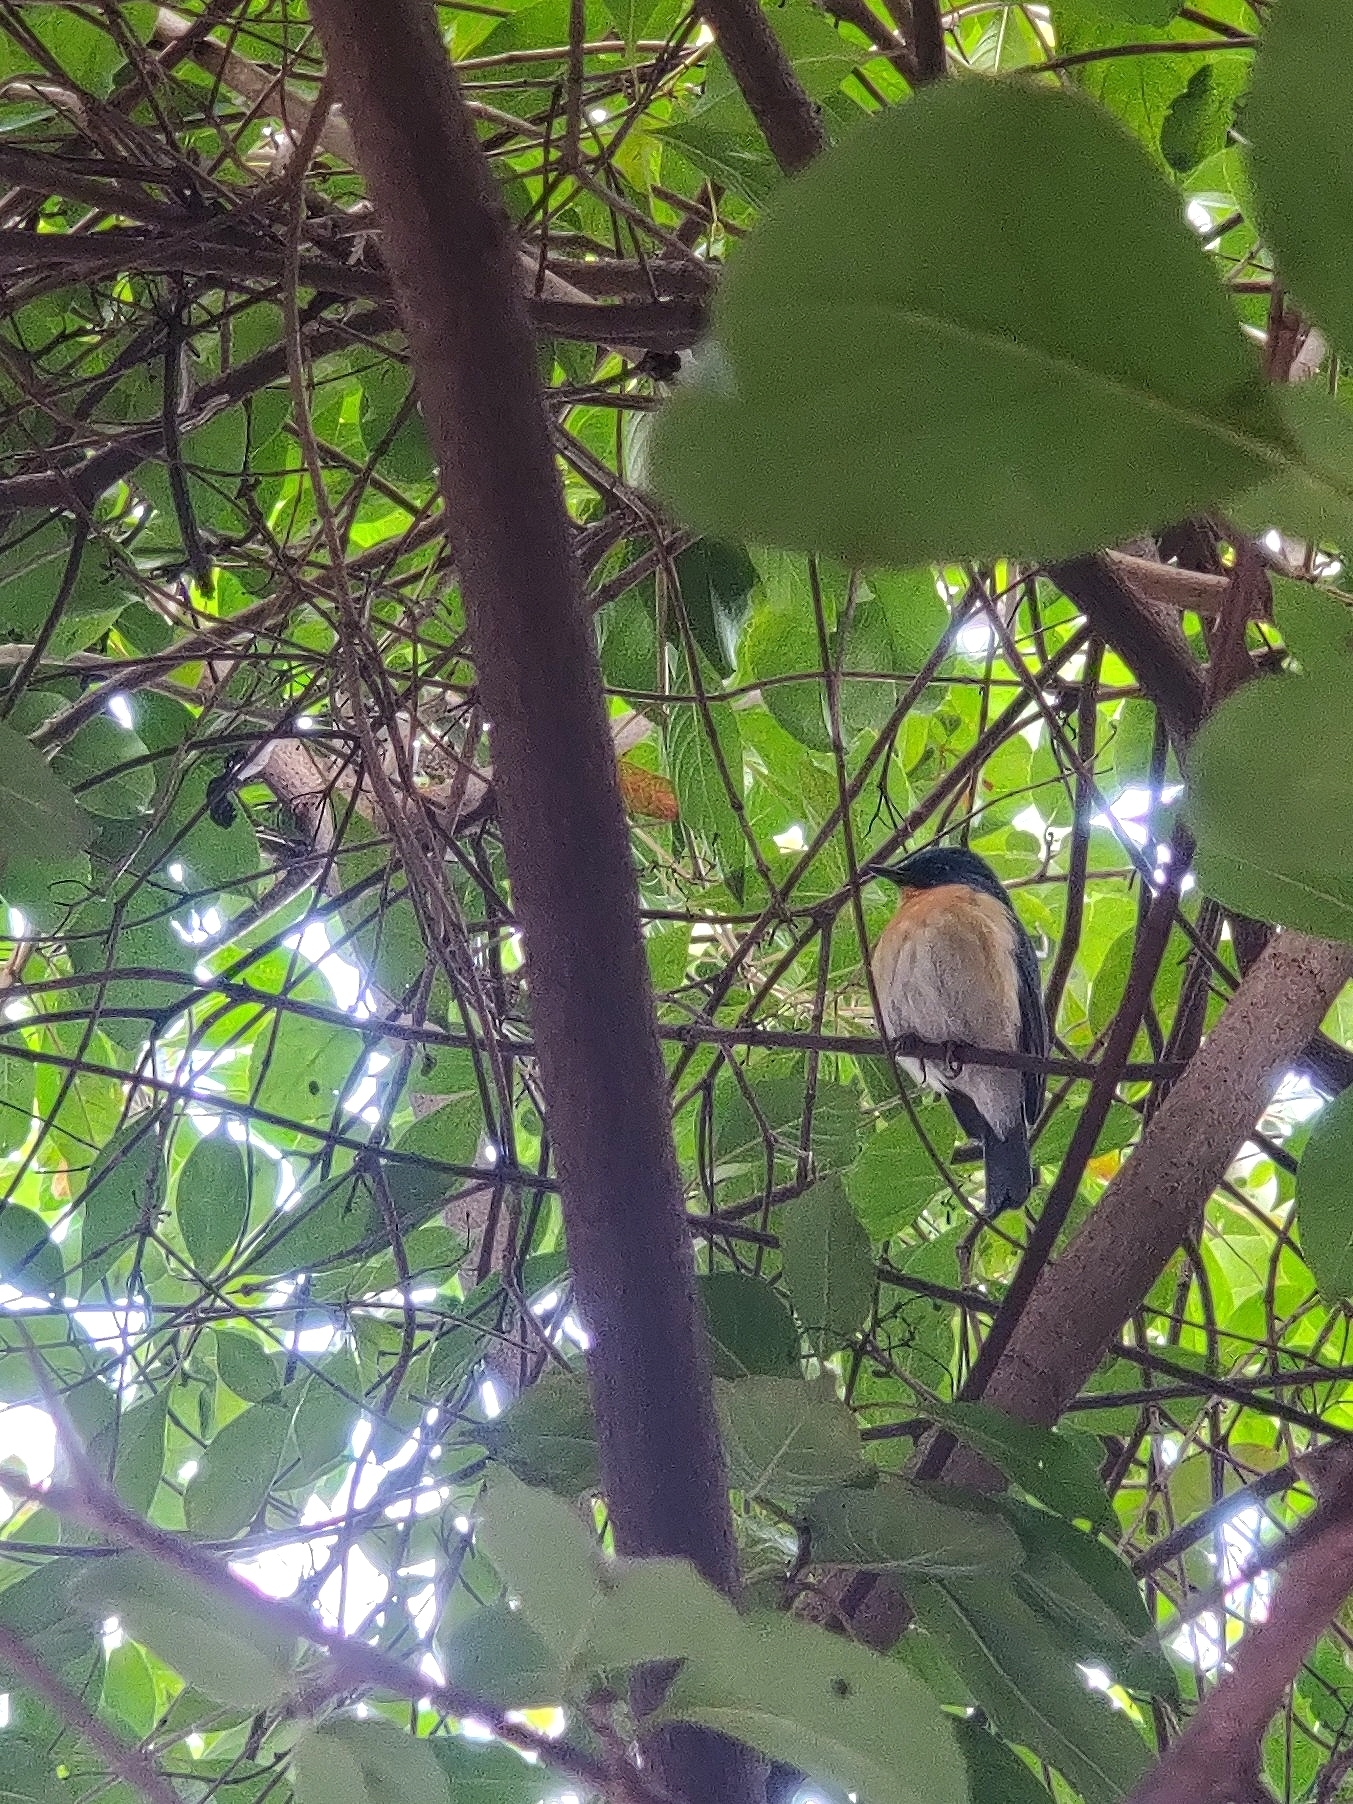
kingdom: Animalia
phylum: Chordata
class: Aves
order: Passeriformes
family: Muscicapidae
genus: Cyornis
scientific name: Cyornis tickelliae
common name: Tickell's blue flycatcher
